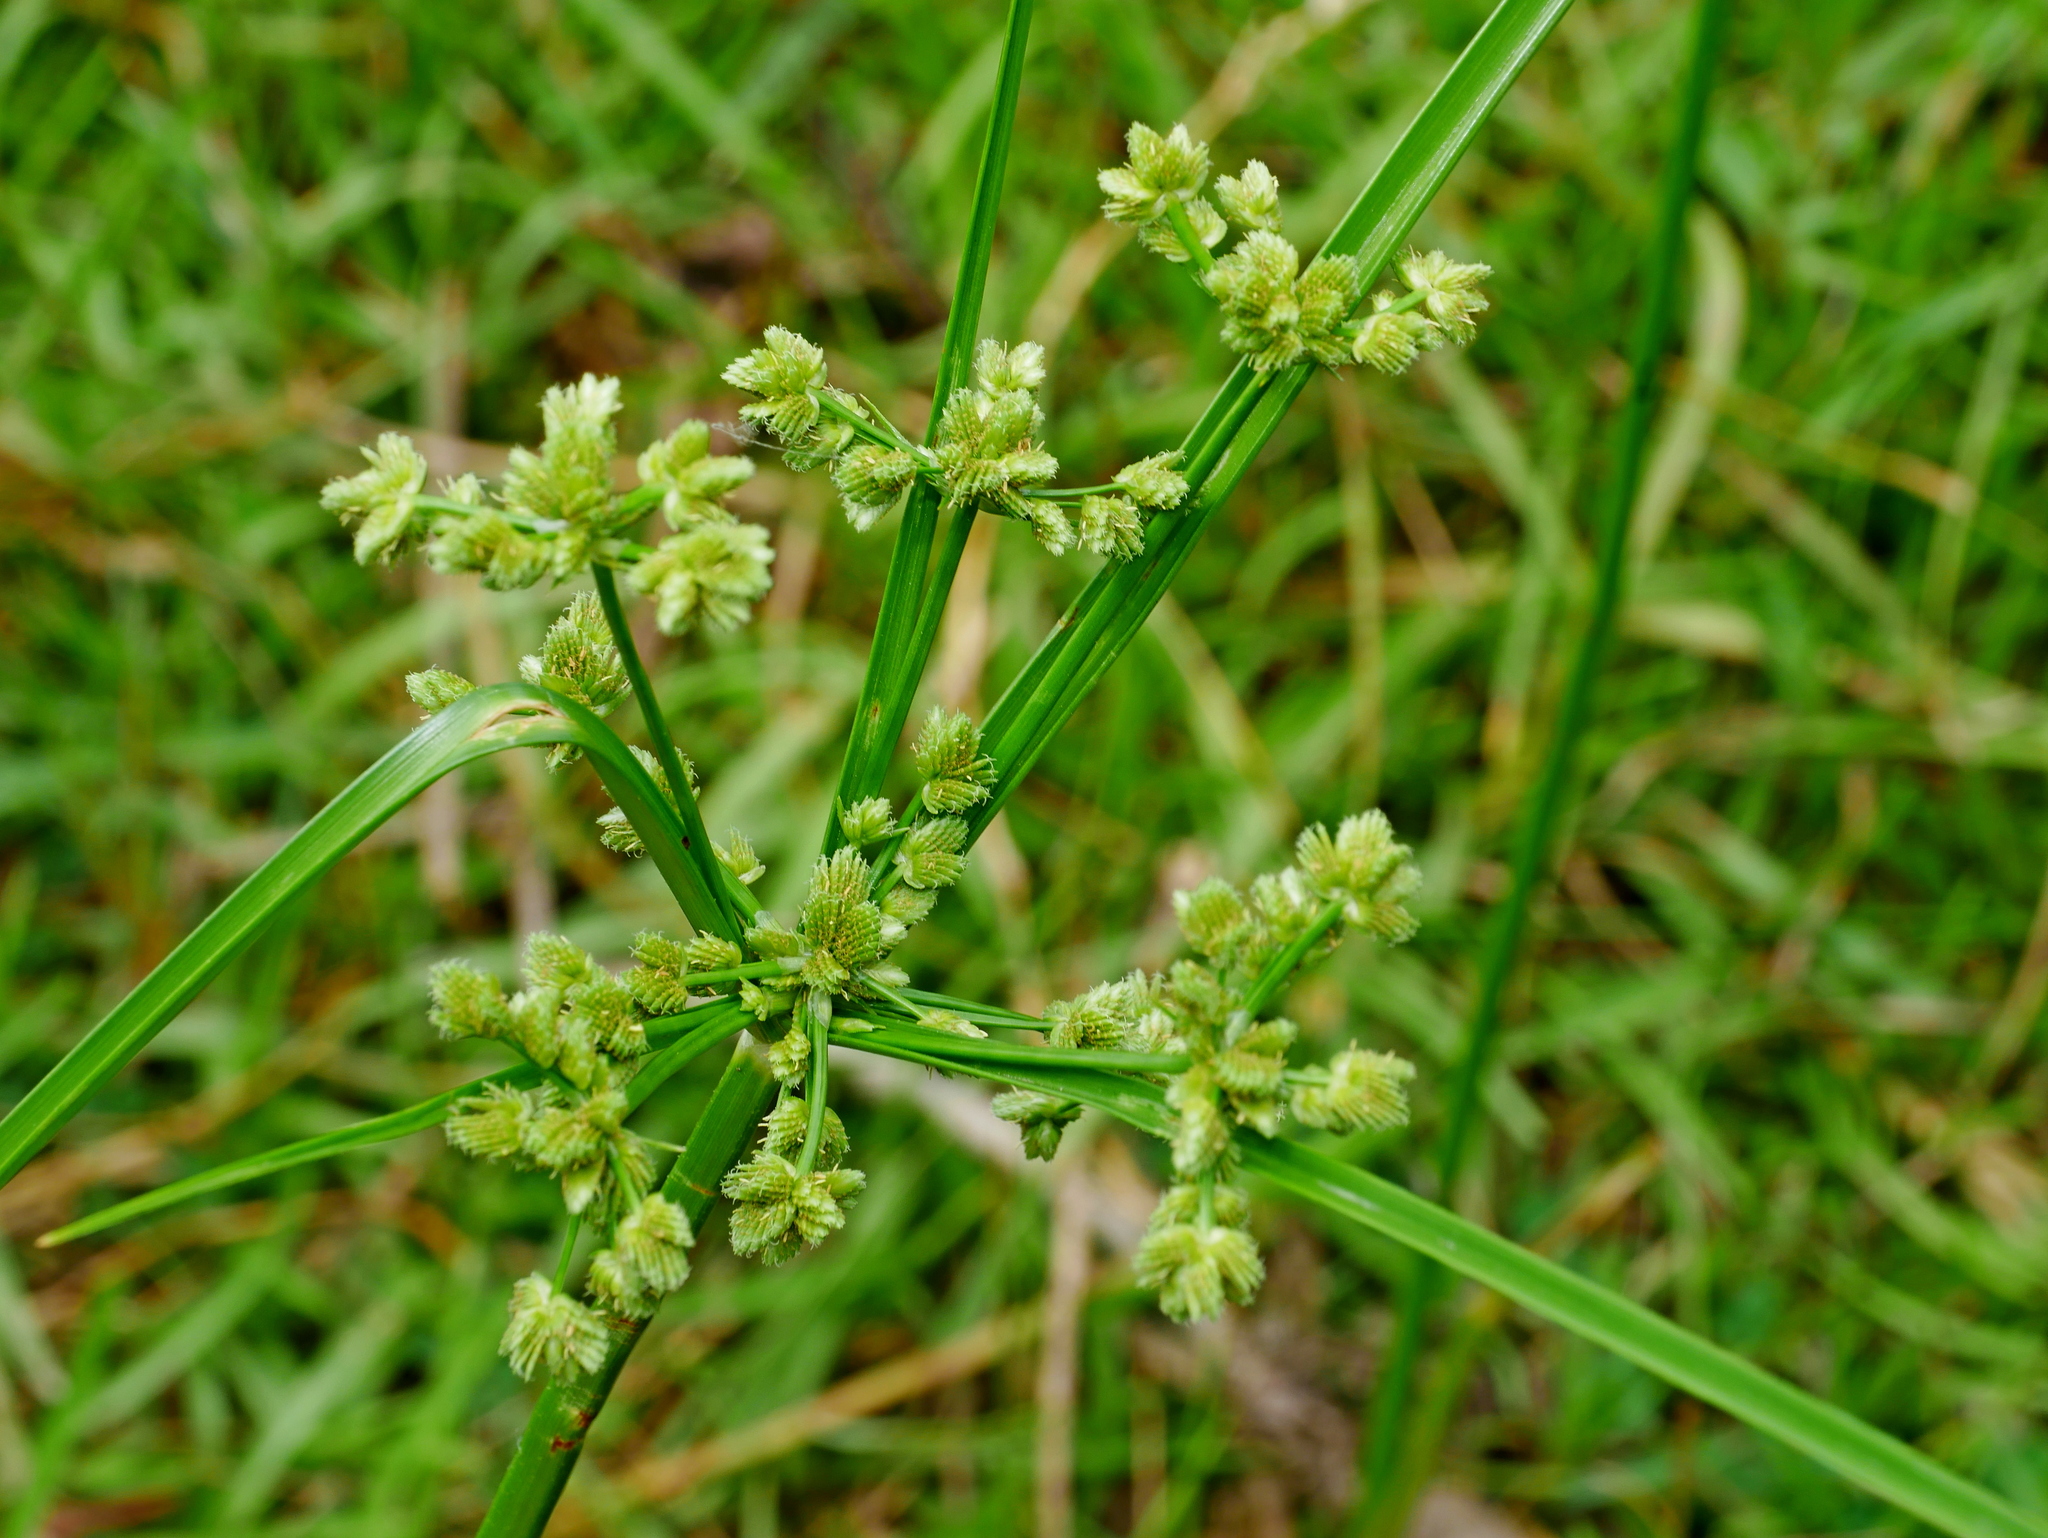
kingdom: Plantae
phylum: Tracheophyta
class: Liliopsida
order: Poales
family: Cyperaceae
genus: Cyperus
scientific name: Cyperus surinamensis
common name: Tropical flat sedge
